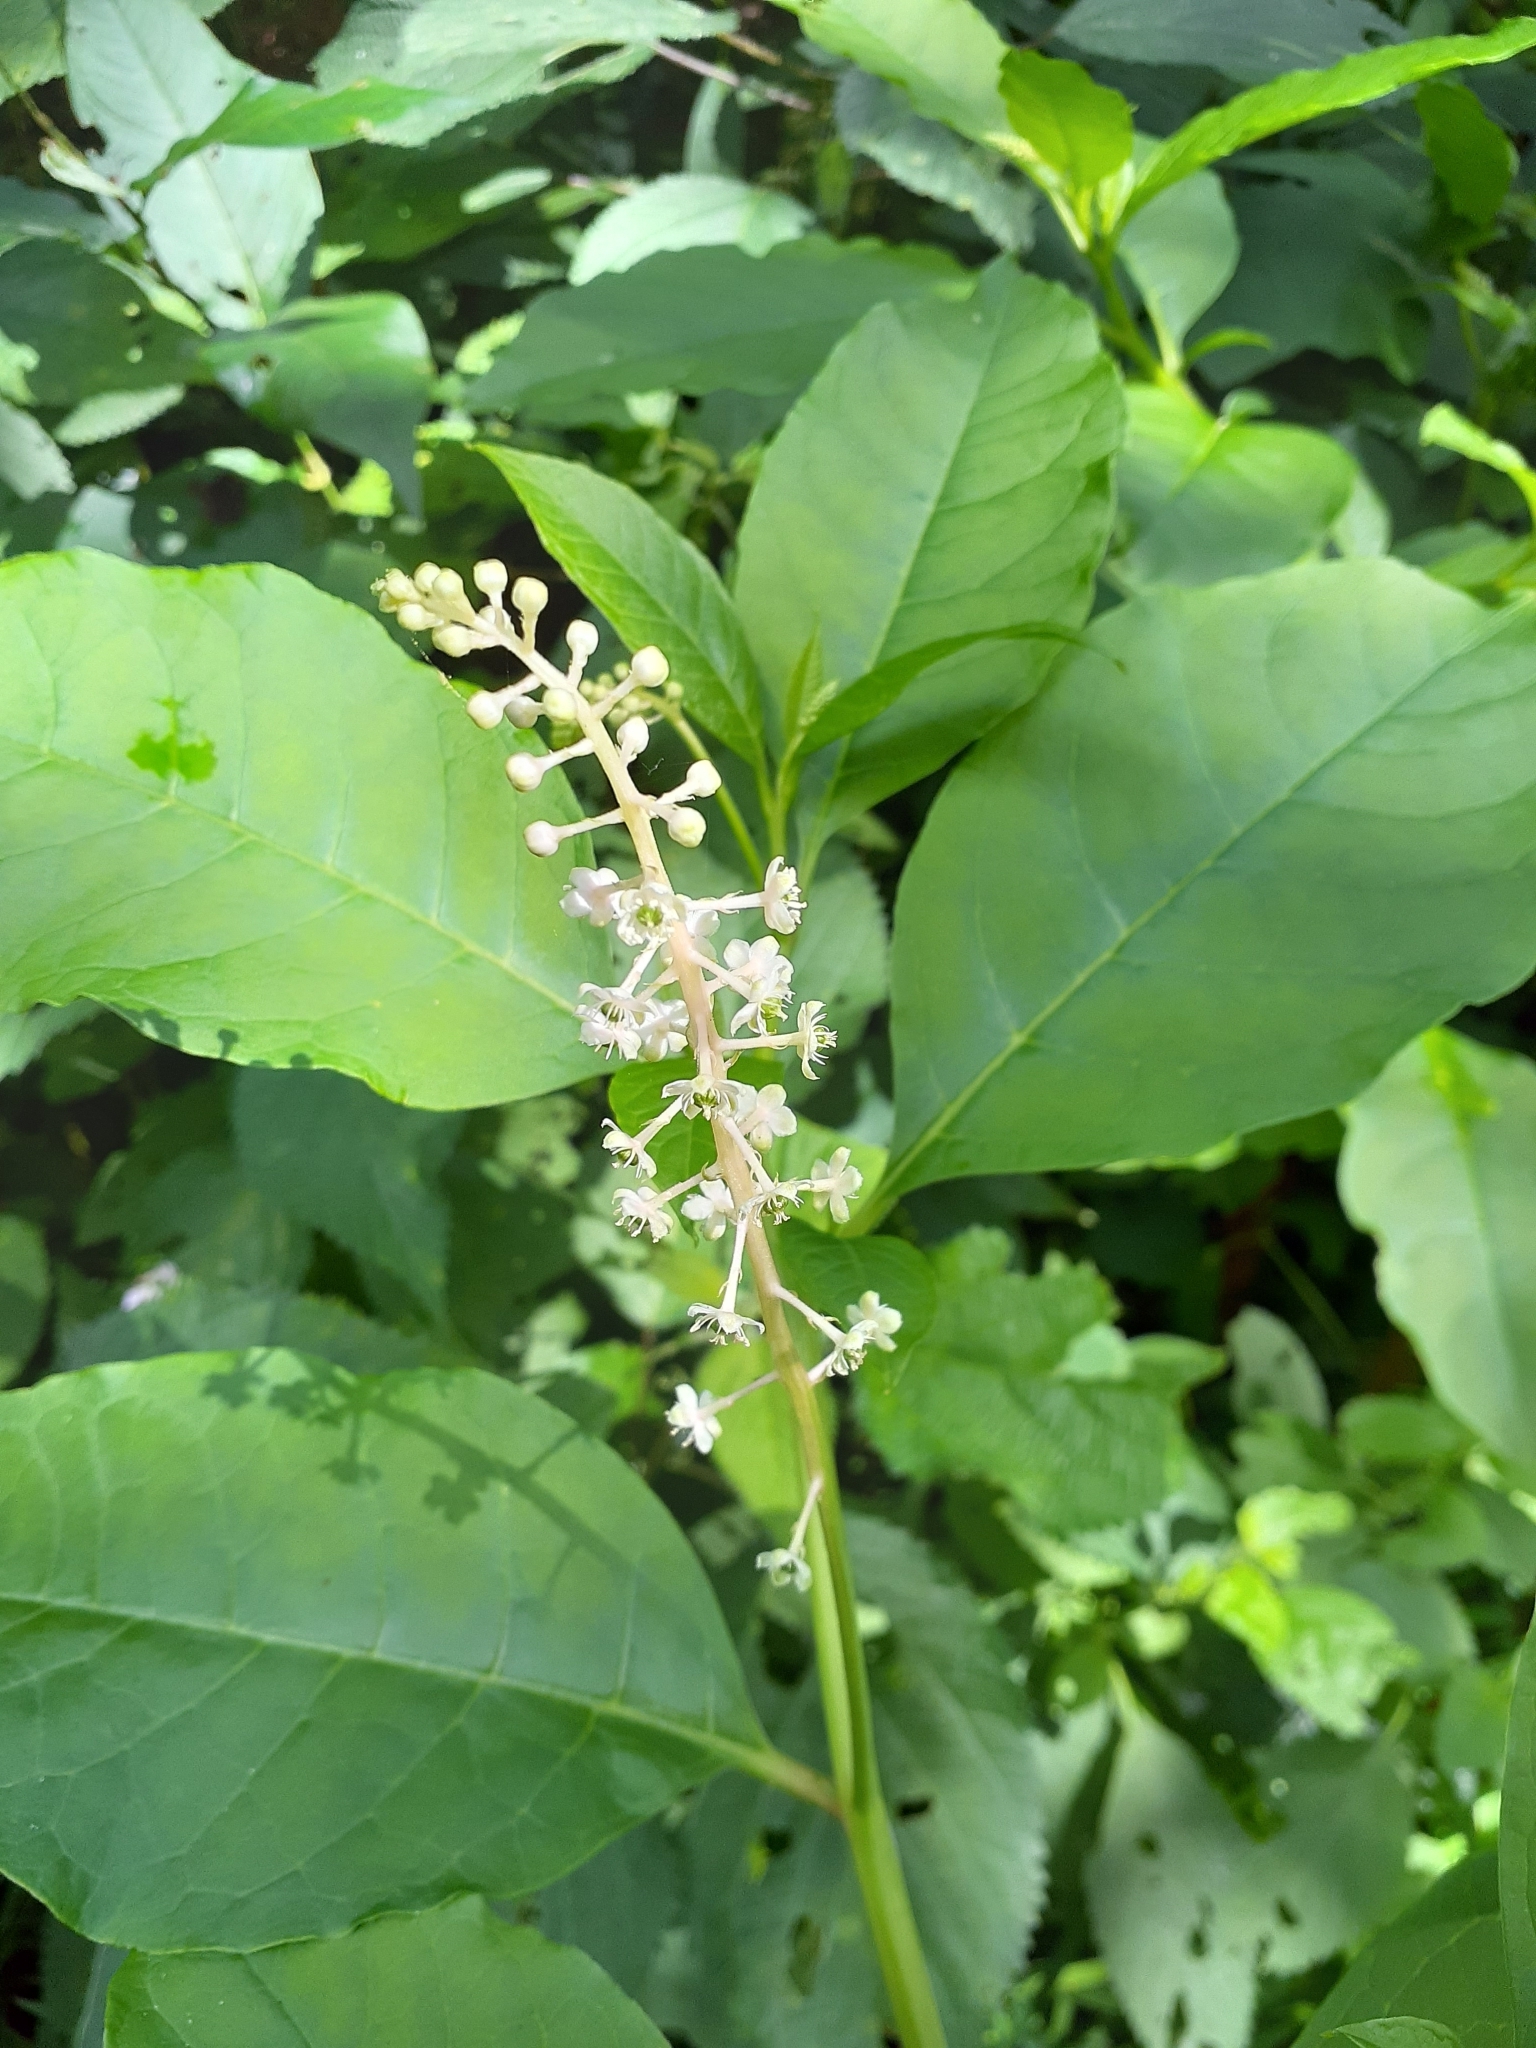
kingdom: Plantae
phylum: Tracheophyta
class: Magnoliopsida
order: Caryophyllales
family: Phytolaccaceae
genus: Phytolacca
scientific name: Phytolacca americana
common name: American pokeweed
